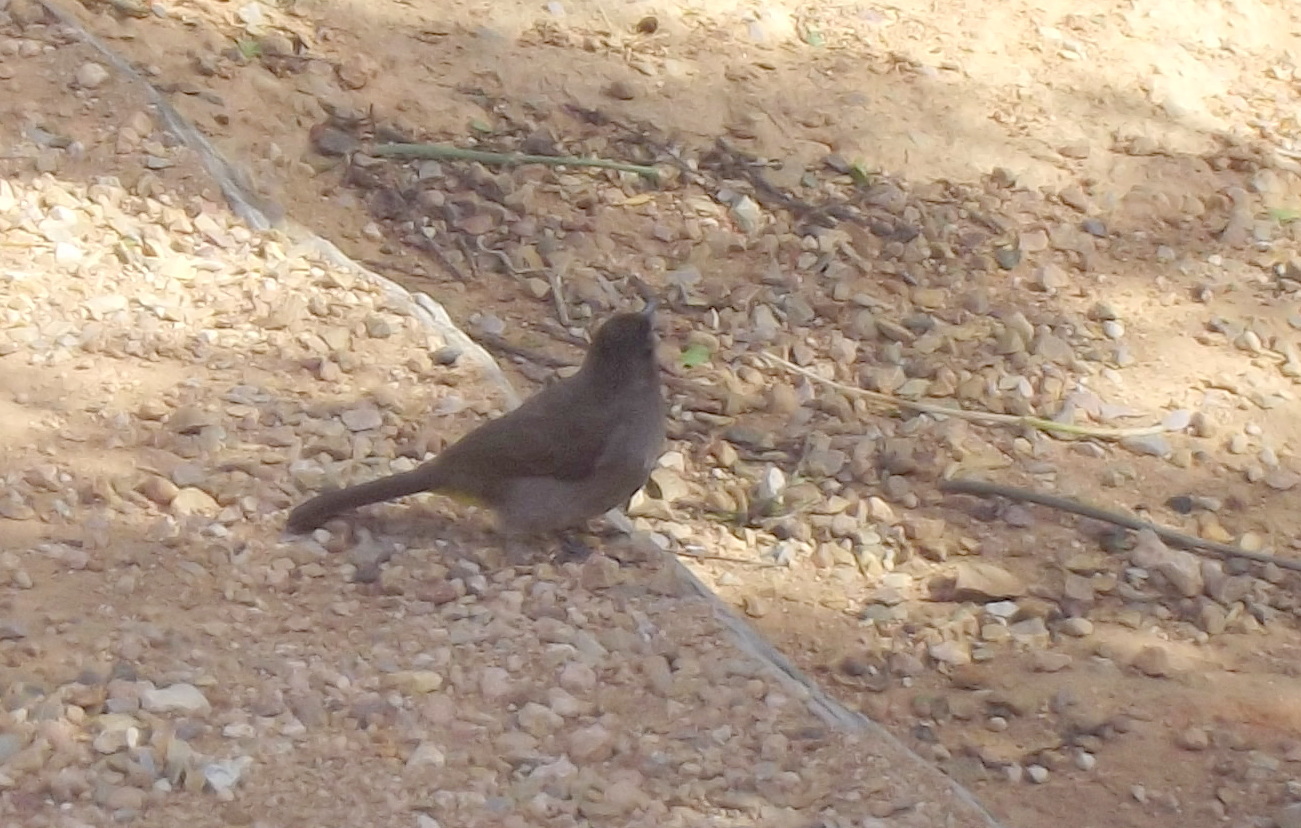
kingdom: Animalia
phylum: Chordata
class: Aves
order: Passeriformes
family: Pycnonotidae
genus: Andropadus
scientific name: Andropadus importunus
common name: Sombre greenbul
